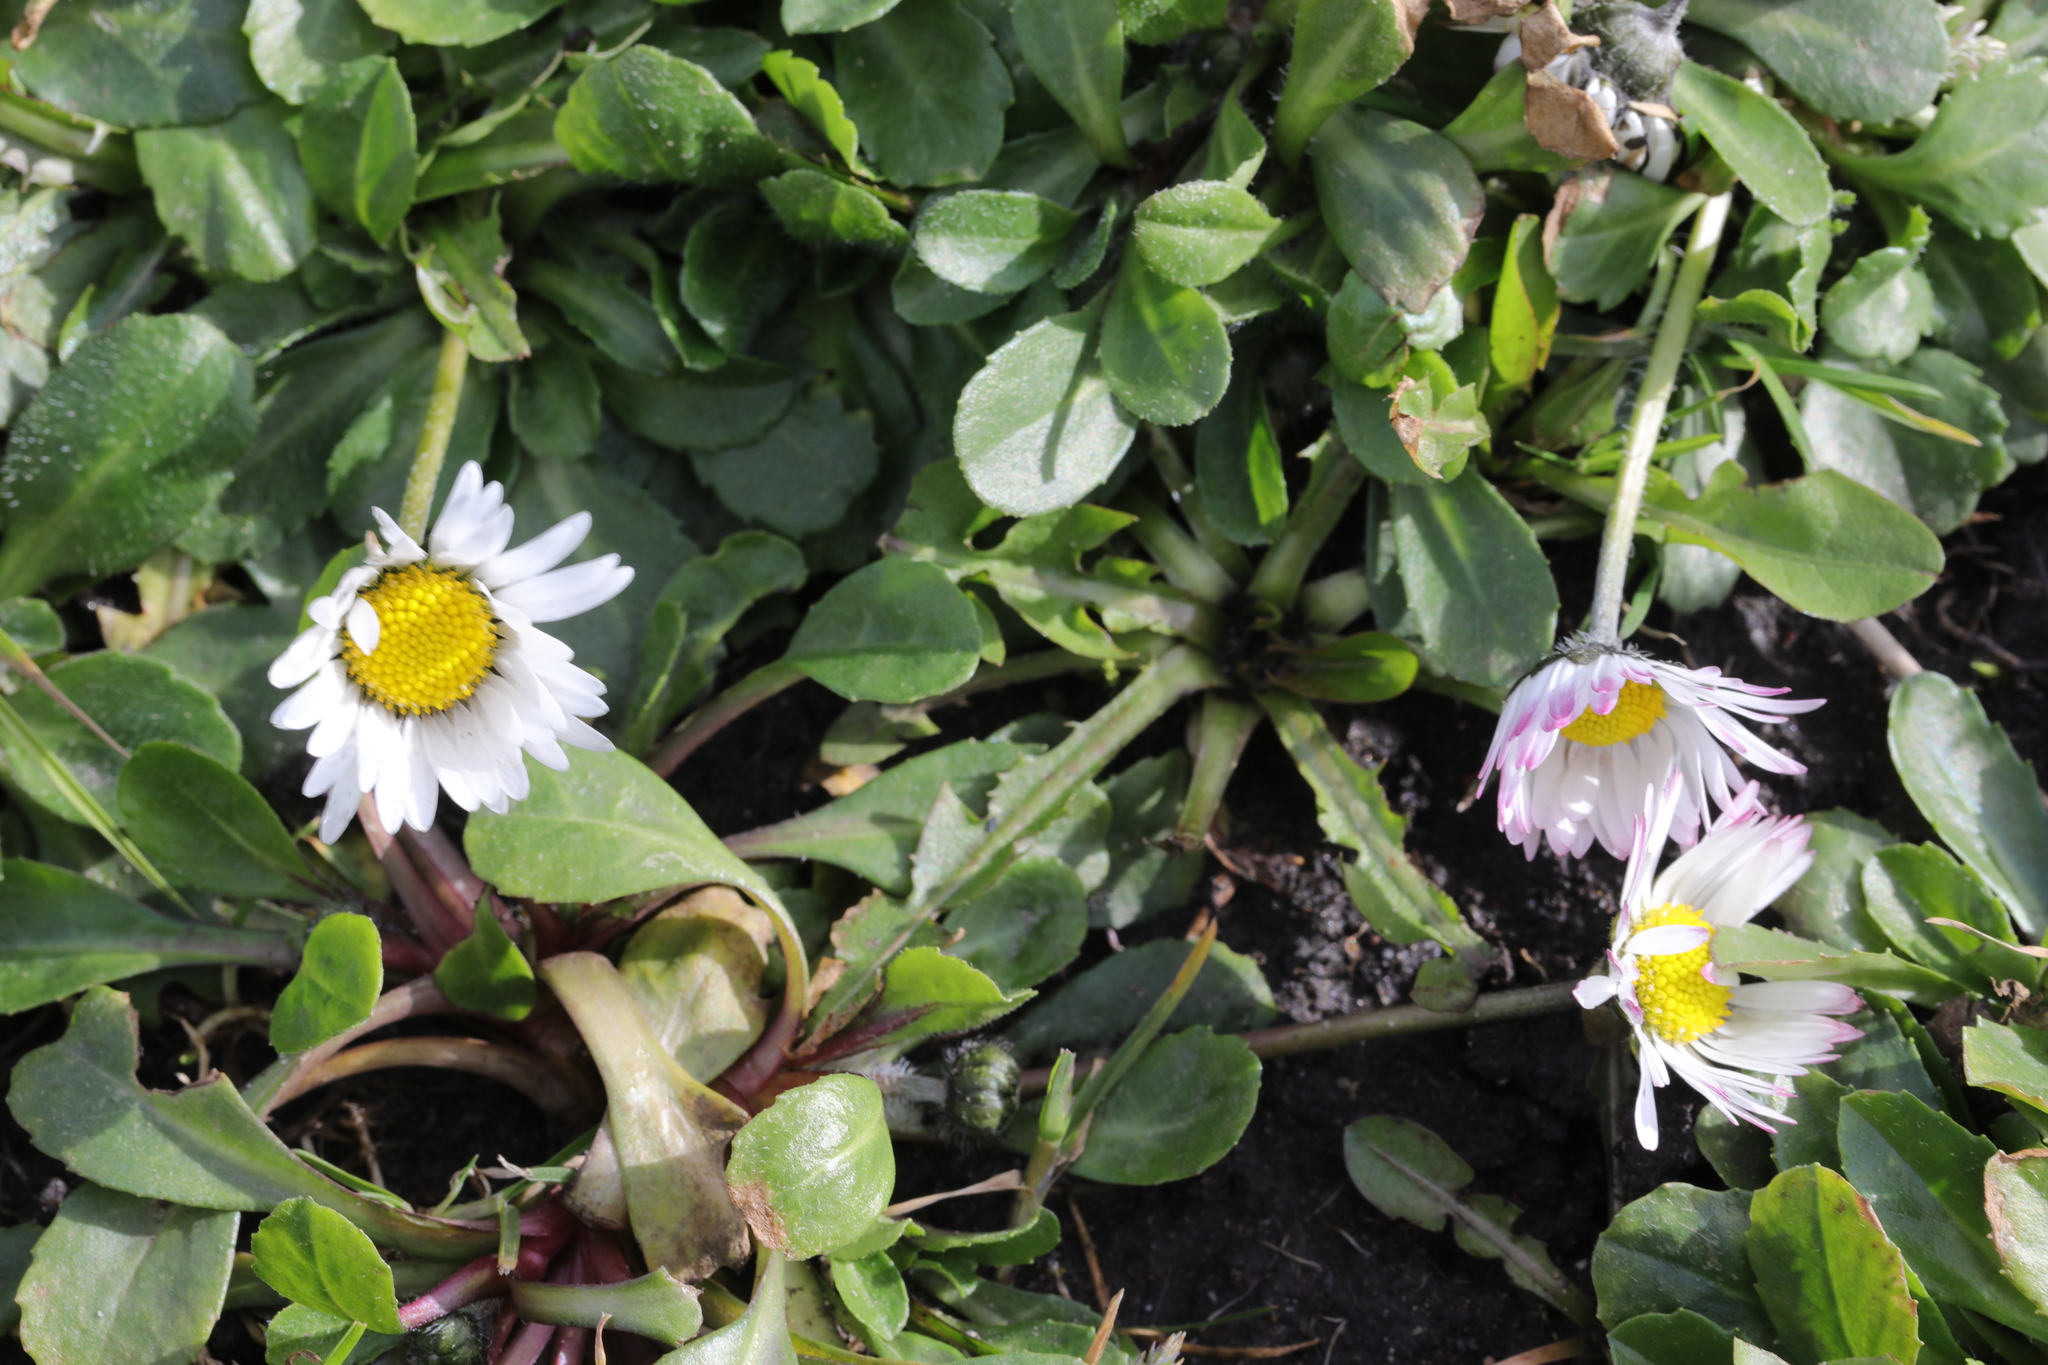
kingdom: Plantae
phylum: Tracheophyta
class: Magnoliopsida
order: Asterales
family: Asteraceae
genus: Bellis
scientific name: Bellis perennis
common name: Lawndaisy
